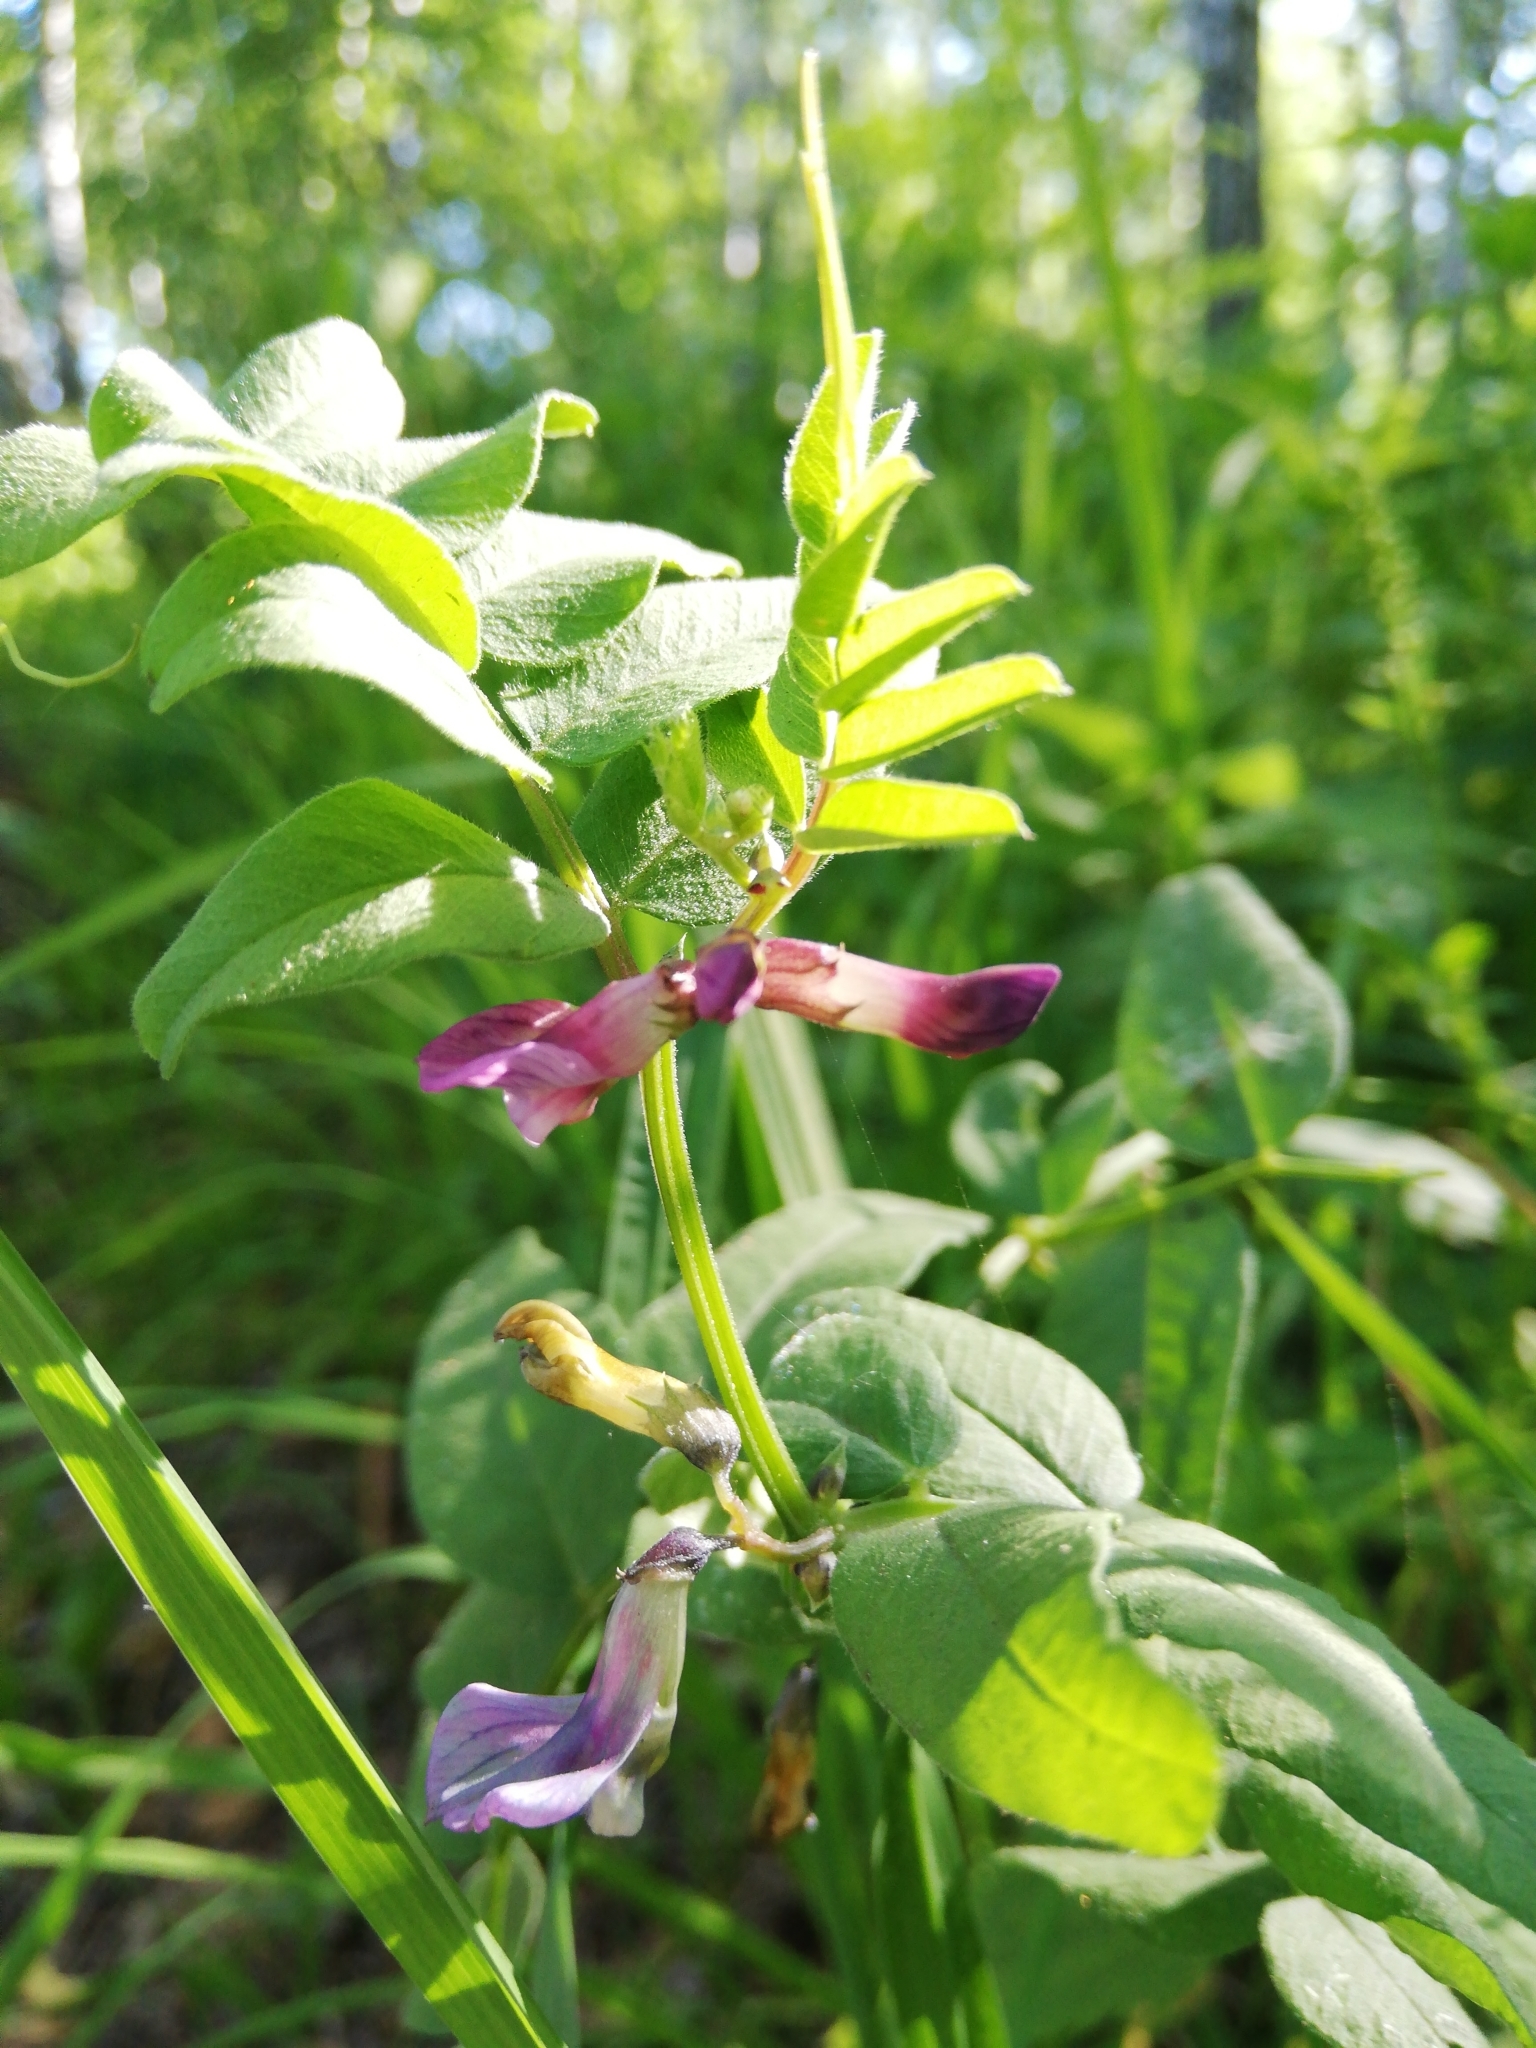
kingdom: Plantae
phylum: Tracheophyta
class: Magnoliopsida
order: Fabales
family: Fabaceae
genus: Vicia
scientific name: Vicia sepium
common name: Bush vetch
